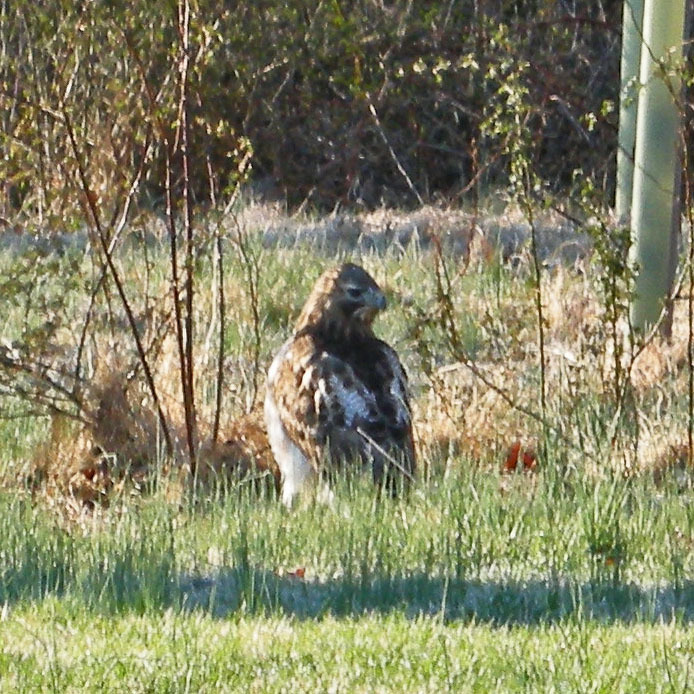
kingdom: Animalia
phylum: Chordata
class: Aves
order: Accipitriformes
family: Accipitridae
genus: Buteo
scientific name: Buteo jamaicensis
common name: Red-tailed hawk
